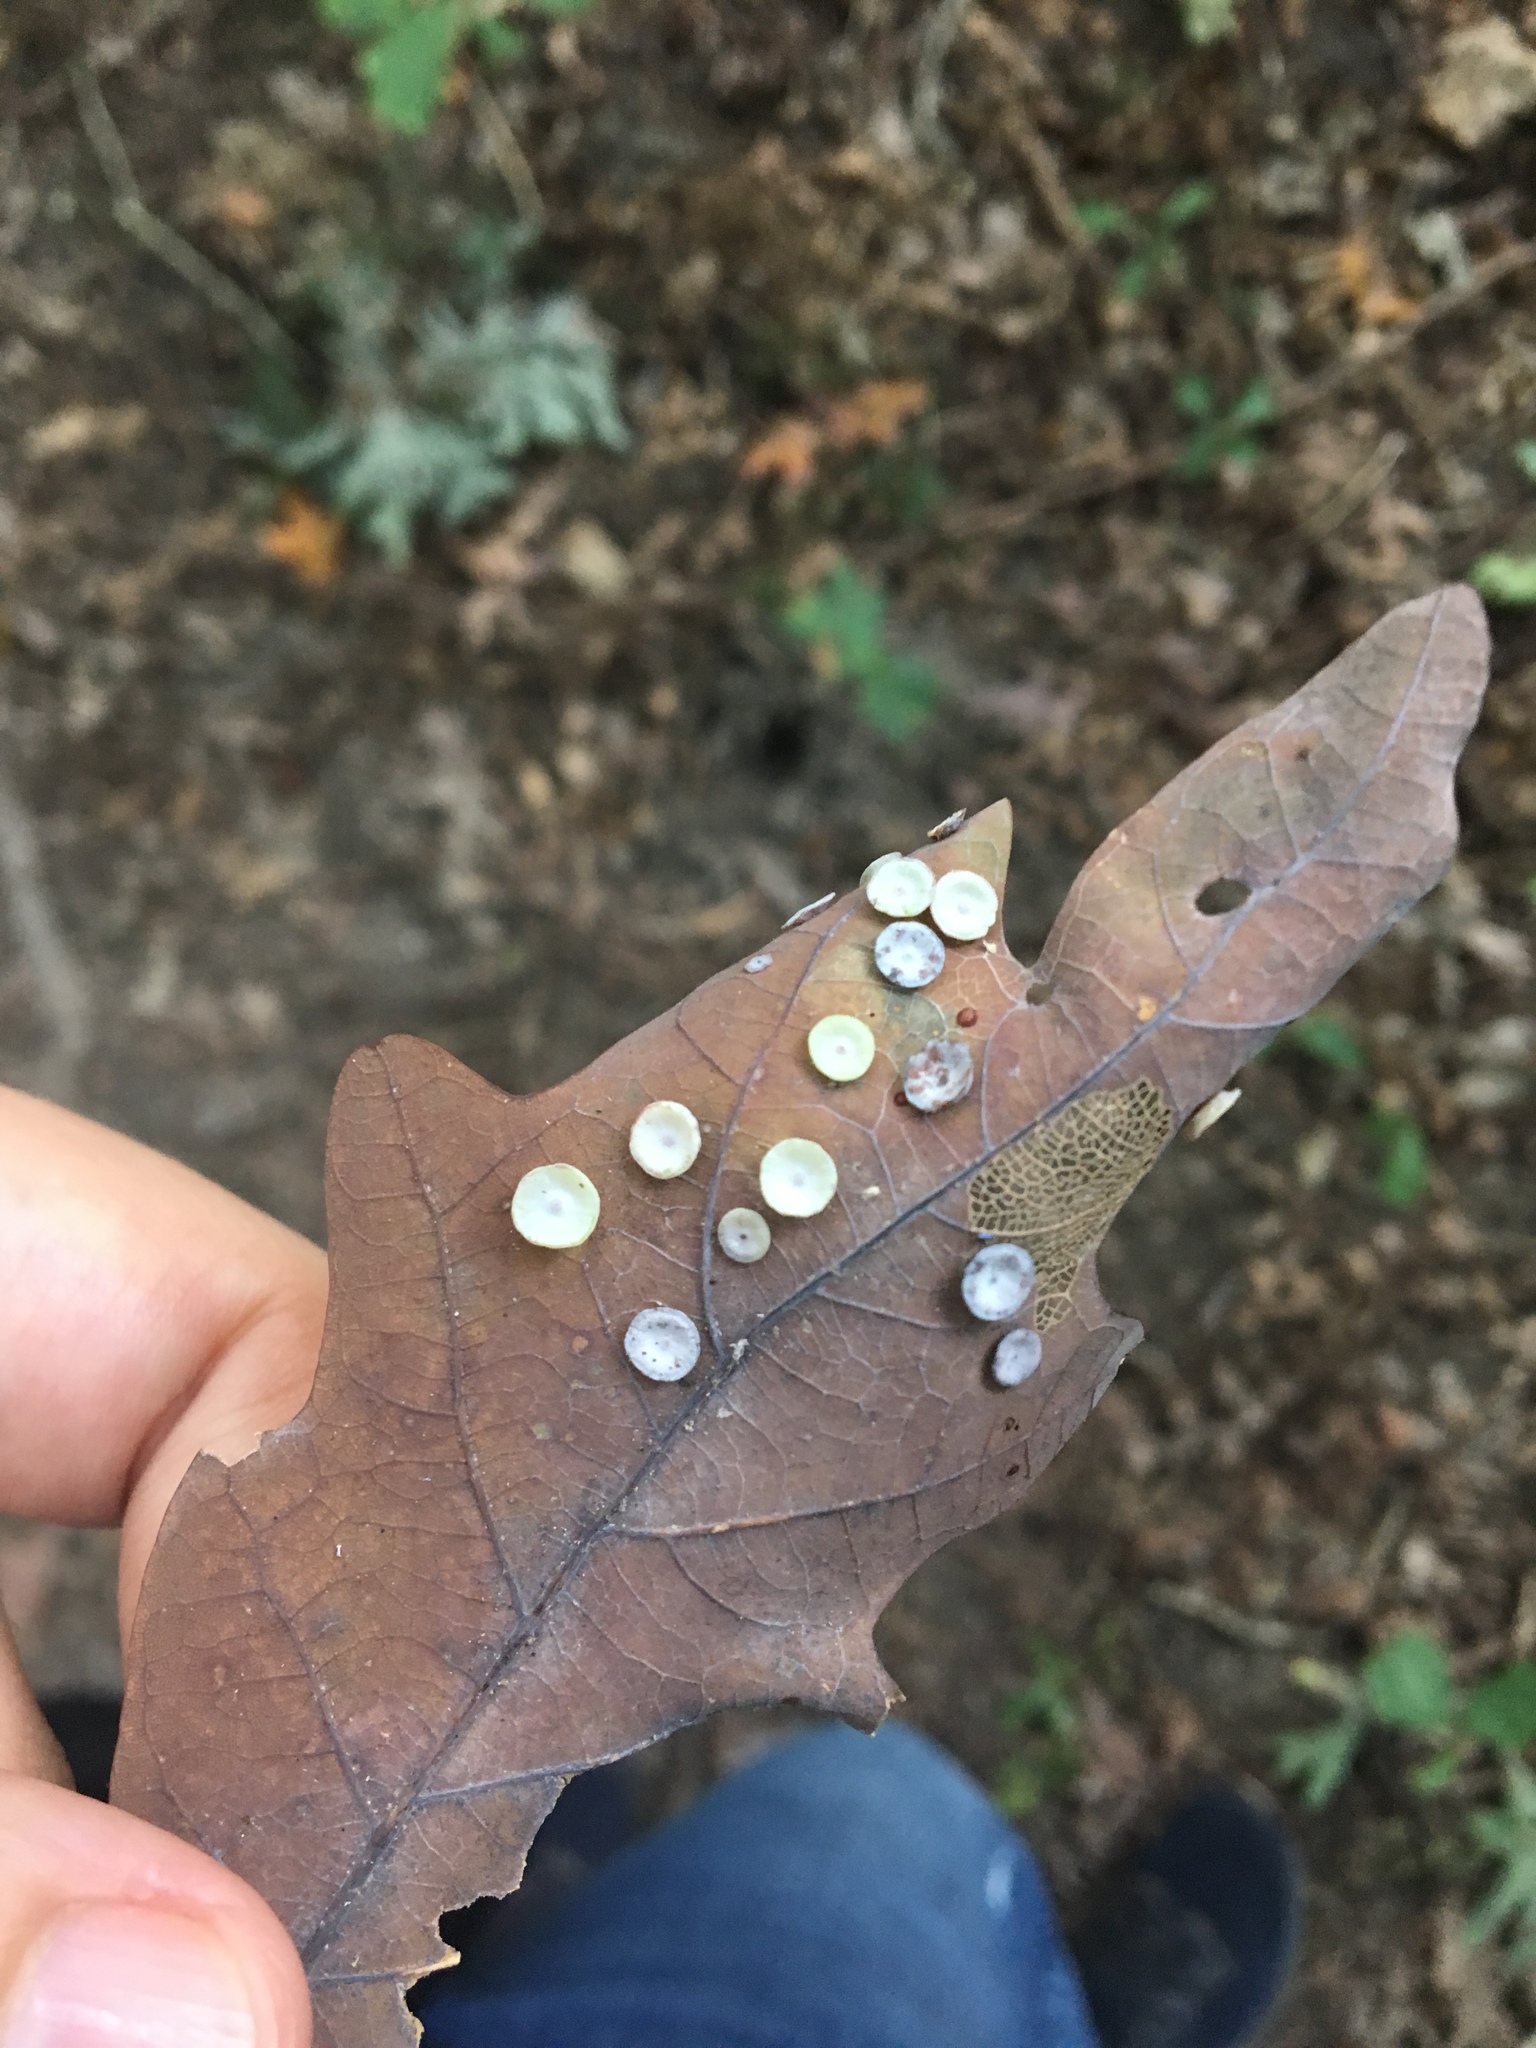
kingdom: Animalia
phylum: Arthropoda
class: Insecta
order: Hymenoptera
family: Cynipidae
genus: Phylloteras
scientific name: Phylloteras poculum
